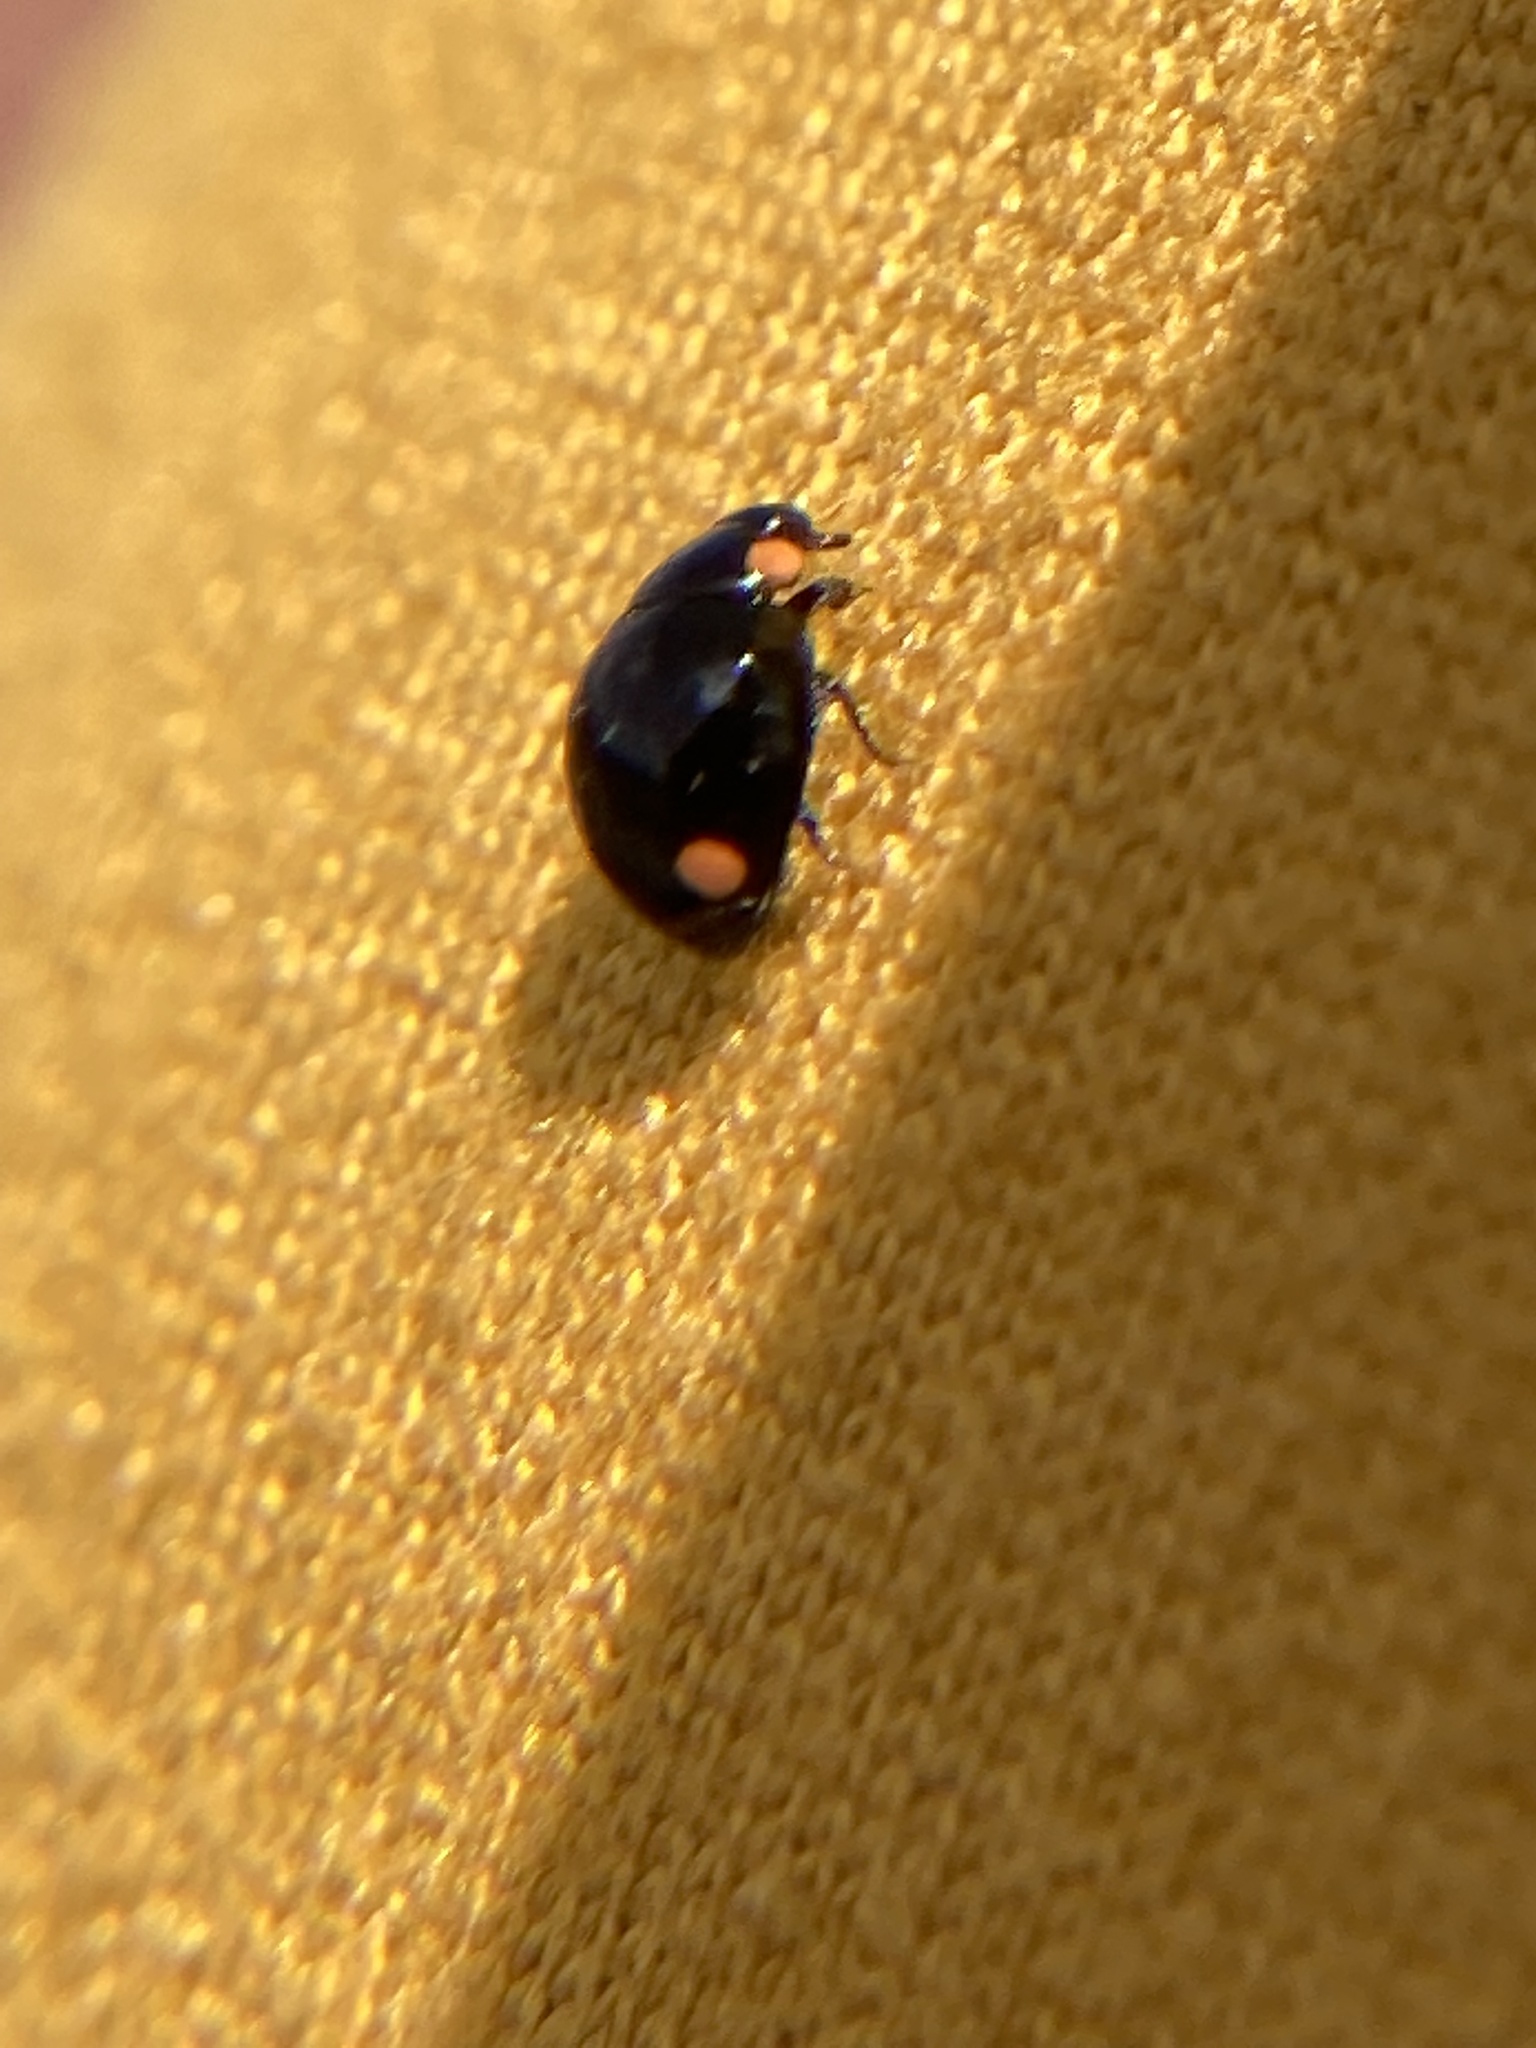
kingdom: Animalia
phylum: Arthropoda
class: Insecta
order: Coleoptera
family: Coccinellidae
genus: Hyperaspis
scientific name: Hyperaspis bigeminata
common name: Bigeminate sigil lady beetle
